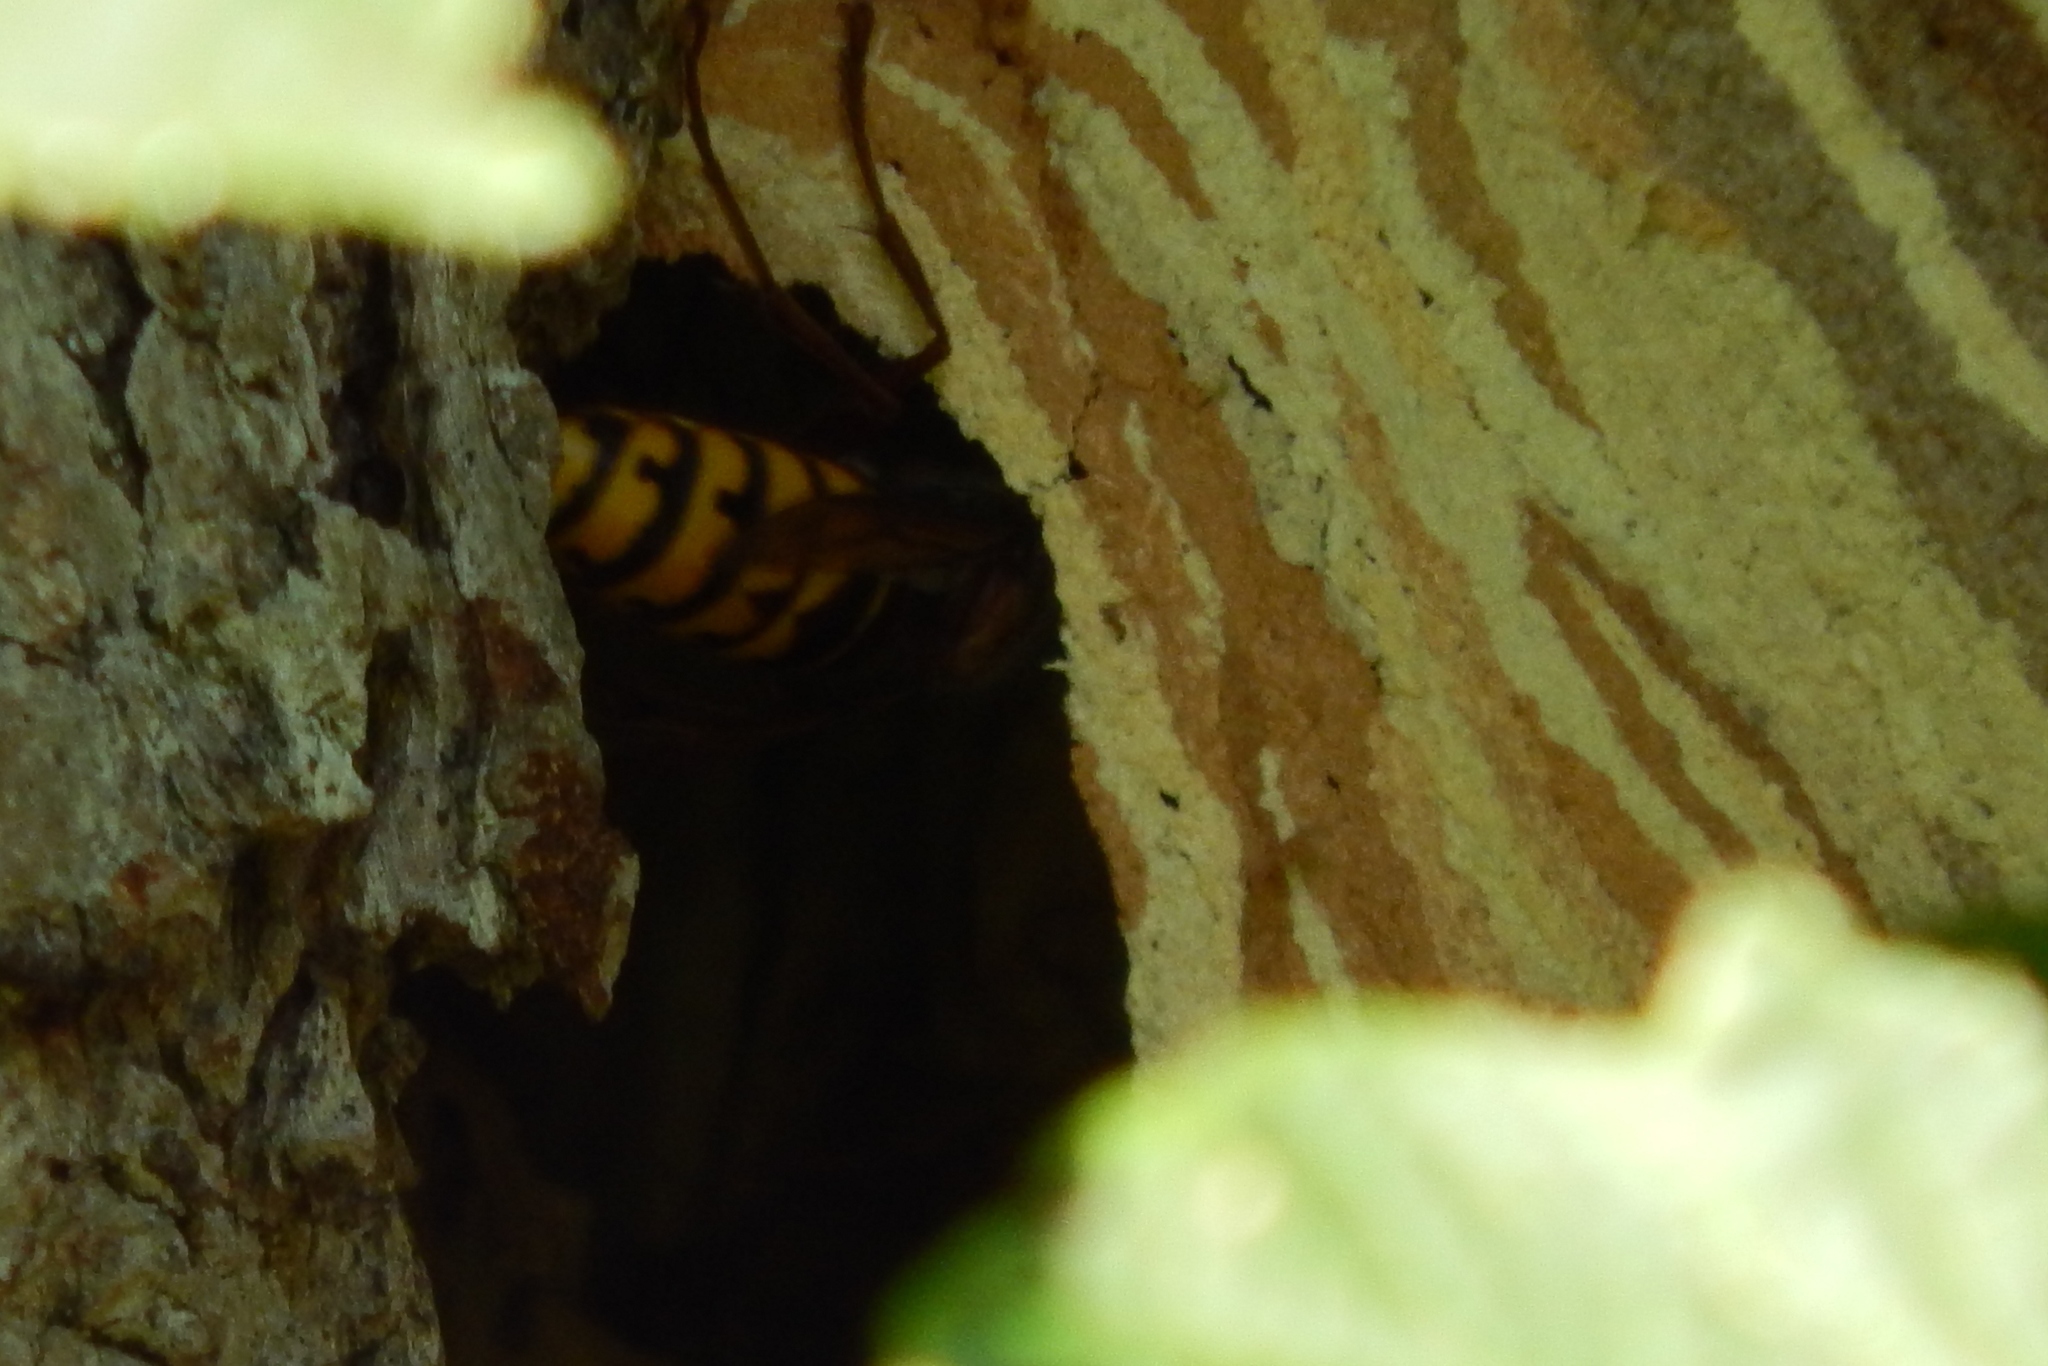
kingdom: Animalia
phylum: Arthropoda
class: Insecta
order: Hymenoptera
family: Vespidae
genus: Vespa
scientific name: Vespa crabro
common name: Hornet
